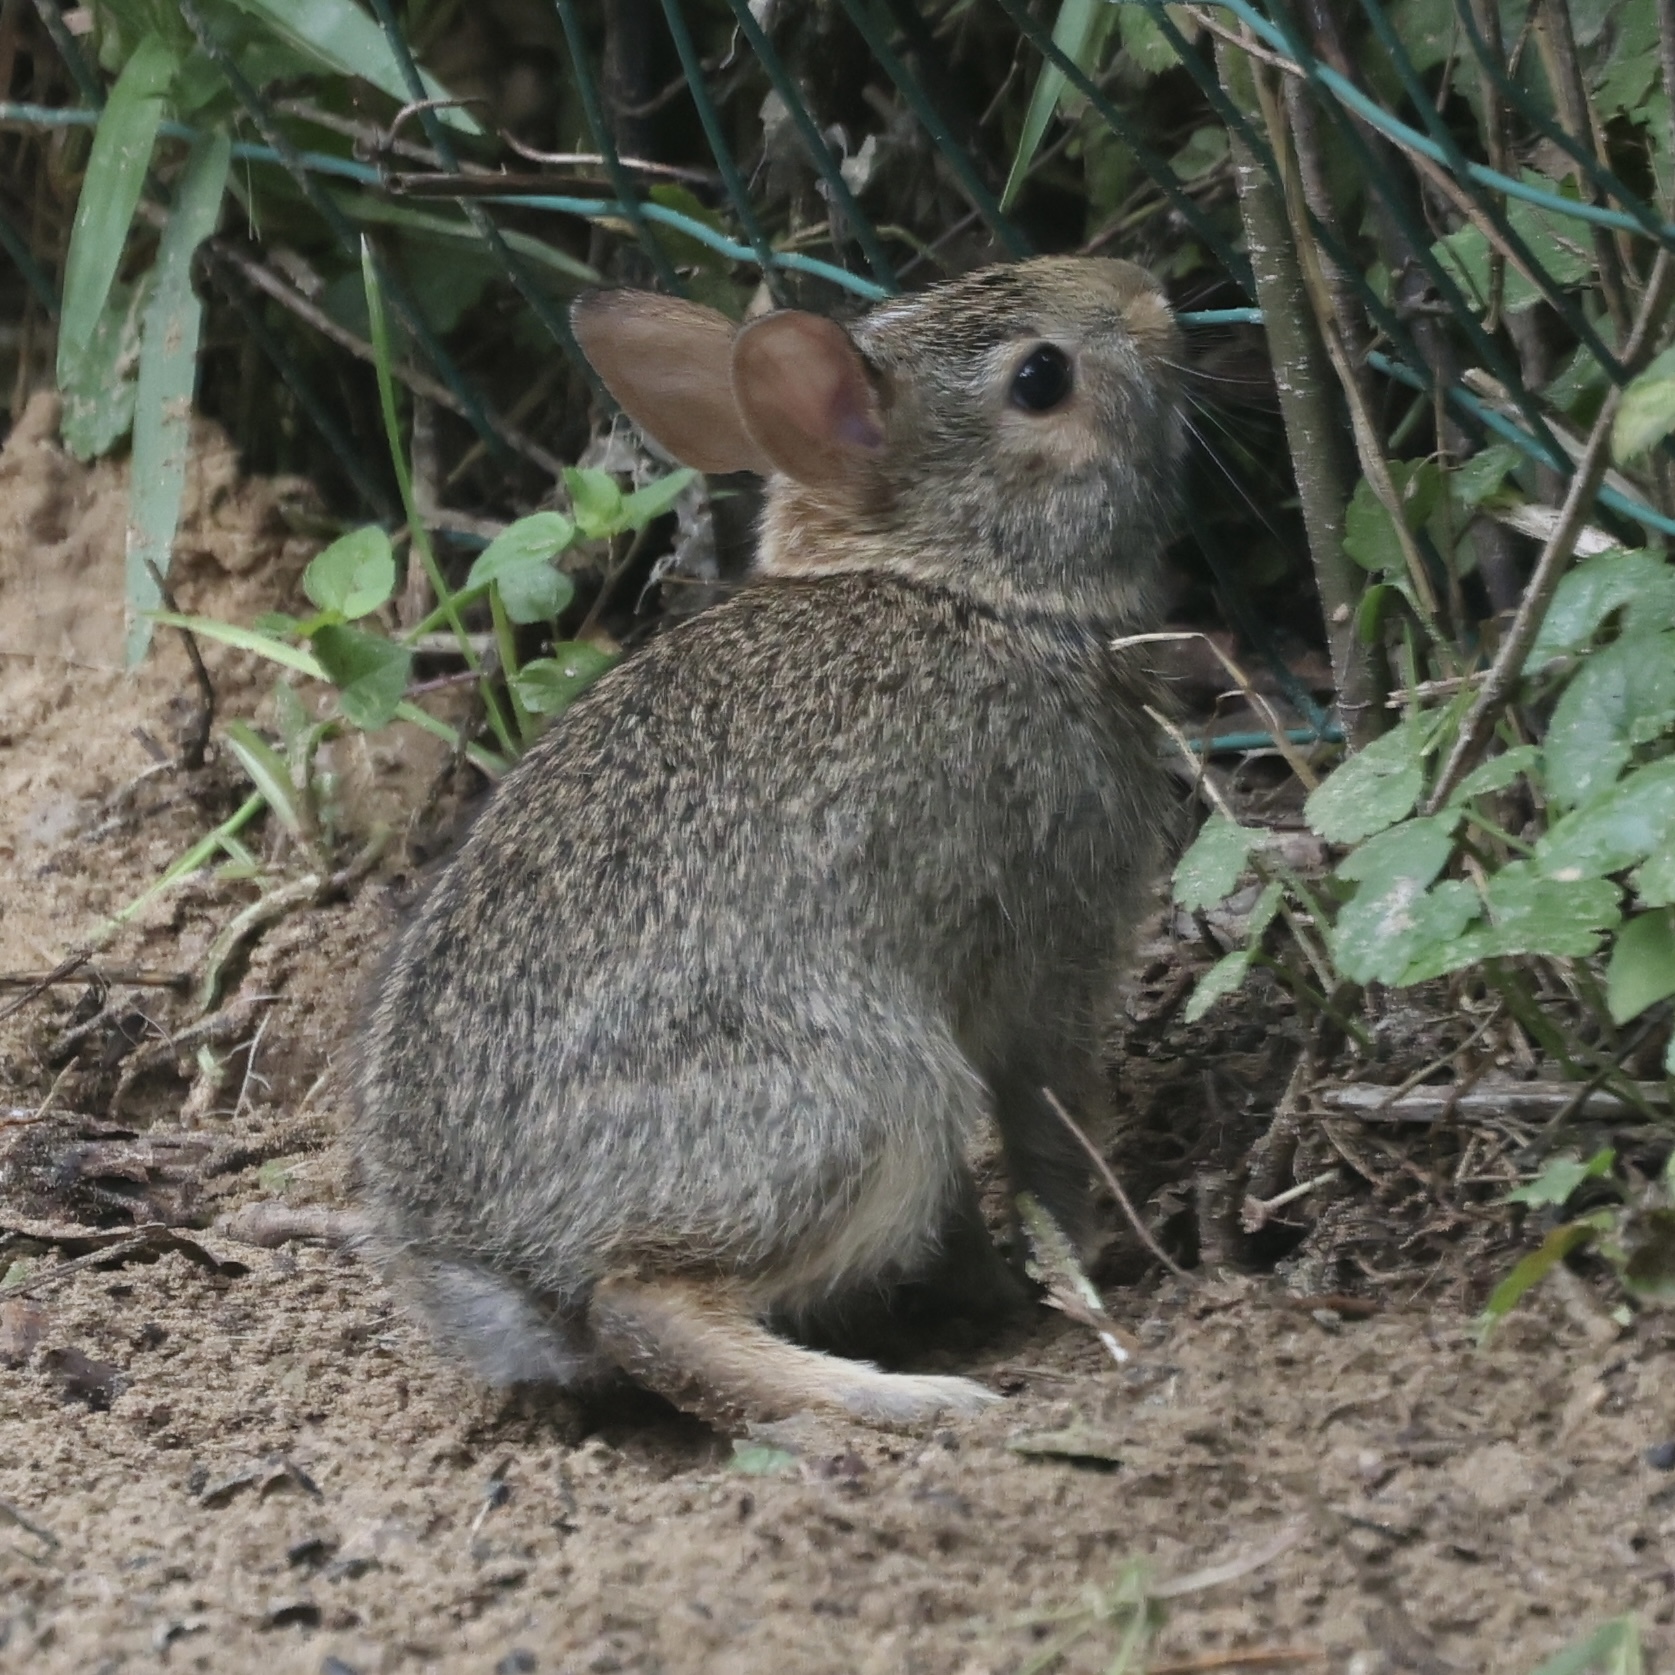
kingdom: Animalia
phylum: Chordata
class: Mammalia
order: Lagomorpha
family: Leporidae
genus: Sylvilagus
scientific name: Sylvilagus floridanus
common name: Eastern cottontail
